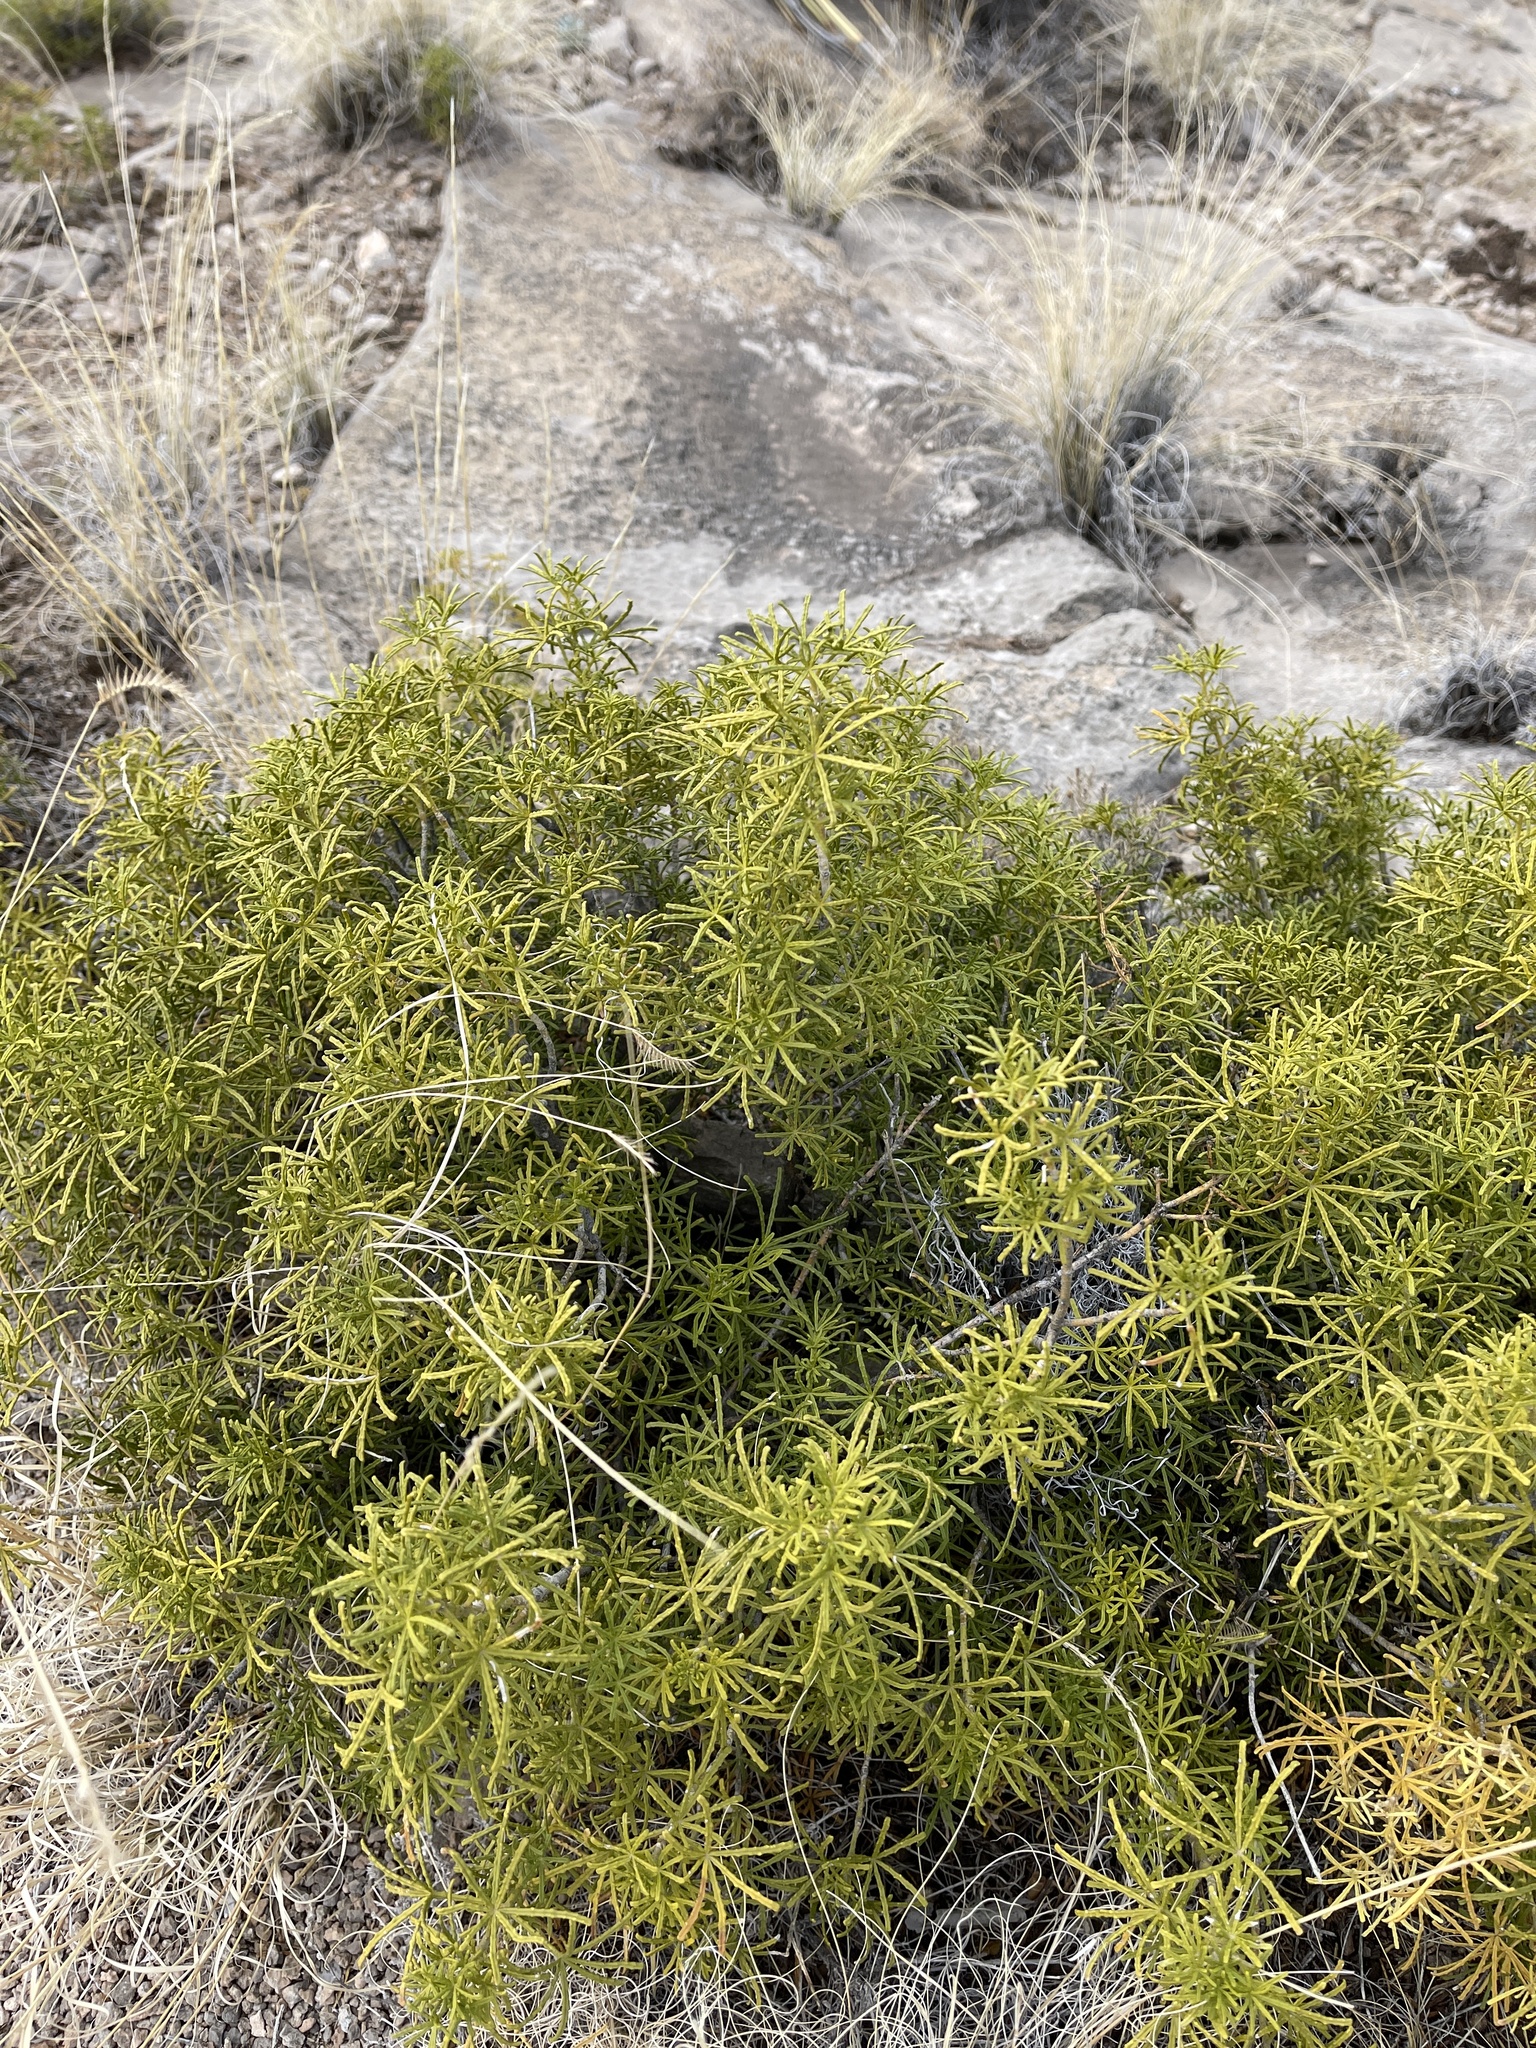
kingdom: Plantae
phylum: Tracheophyta
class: Magnoliopsida
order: Sapindales
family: Rutaceae
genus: Choisya
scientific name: Choisya dumosa
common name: Mexican-orange
